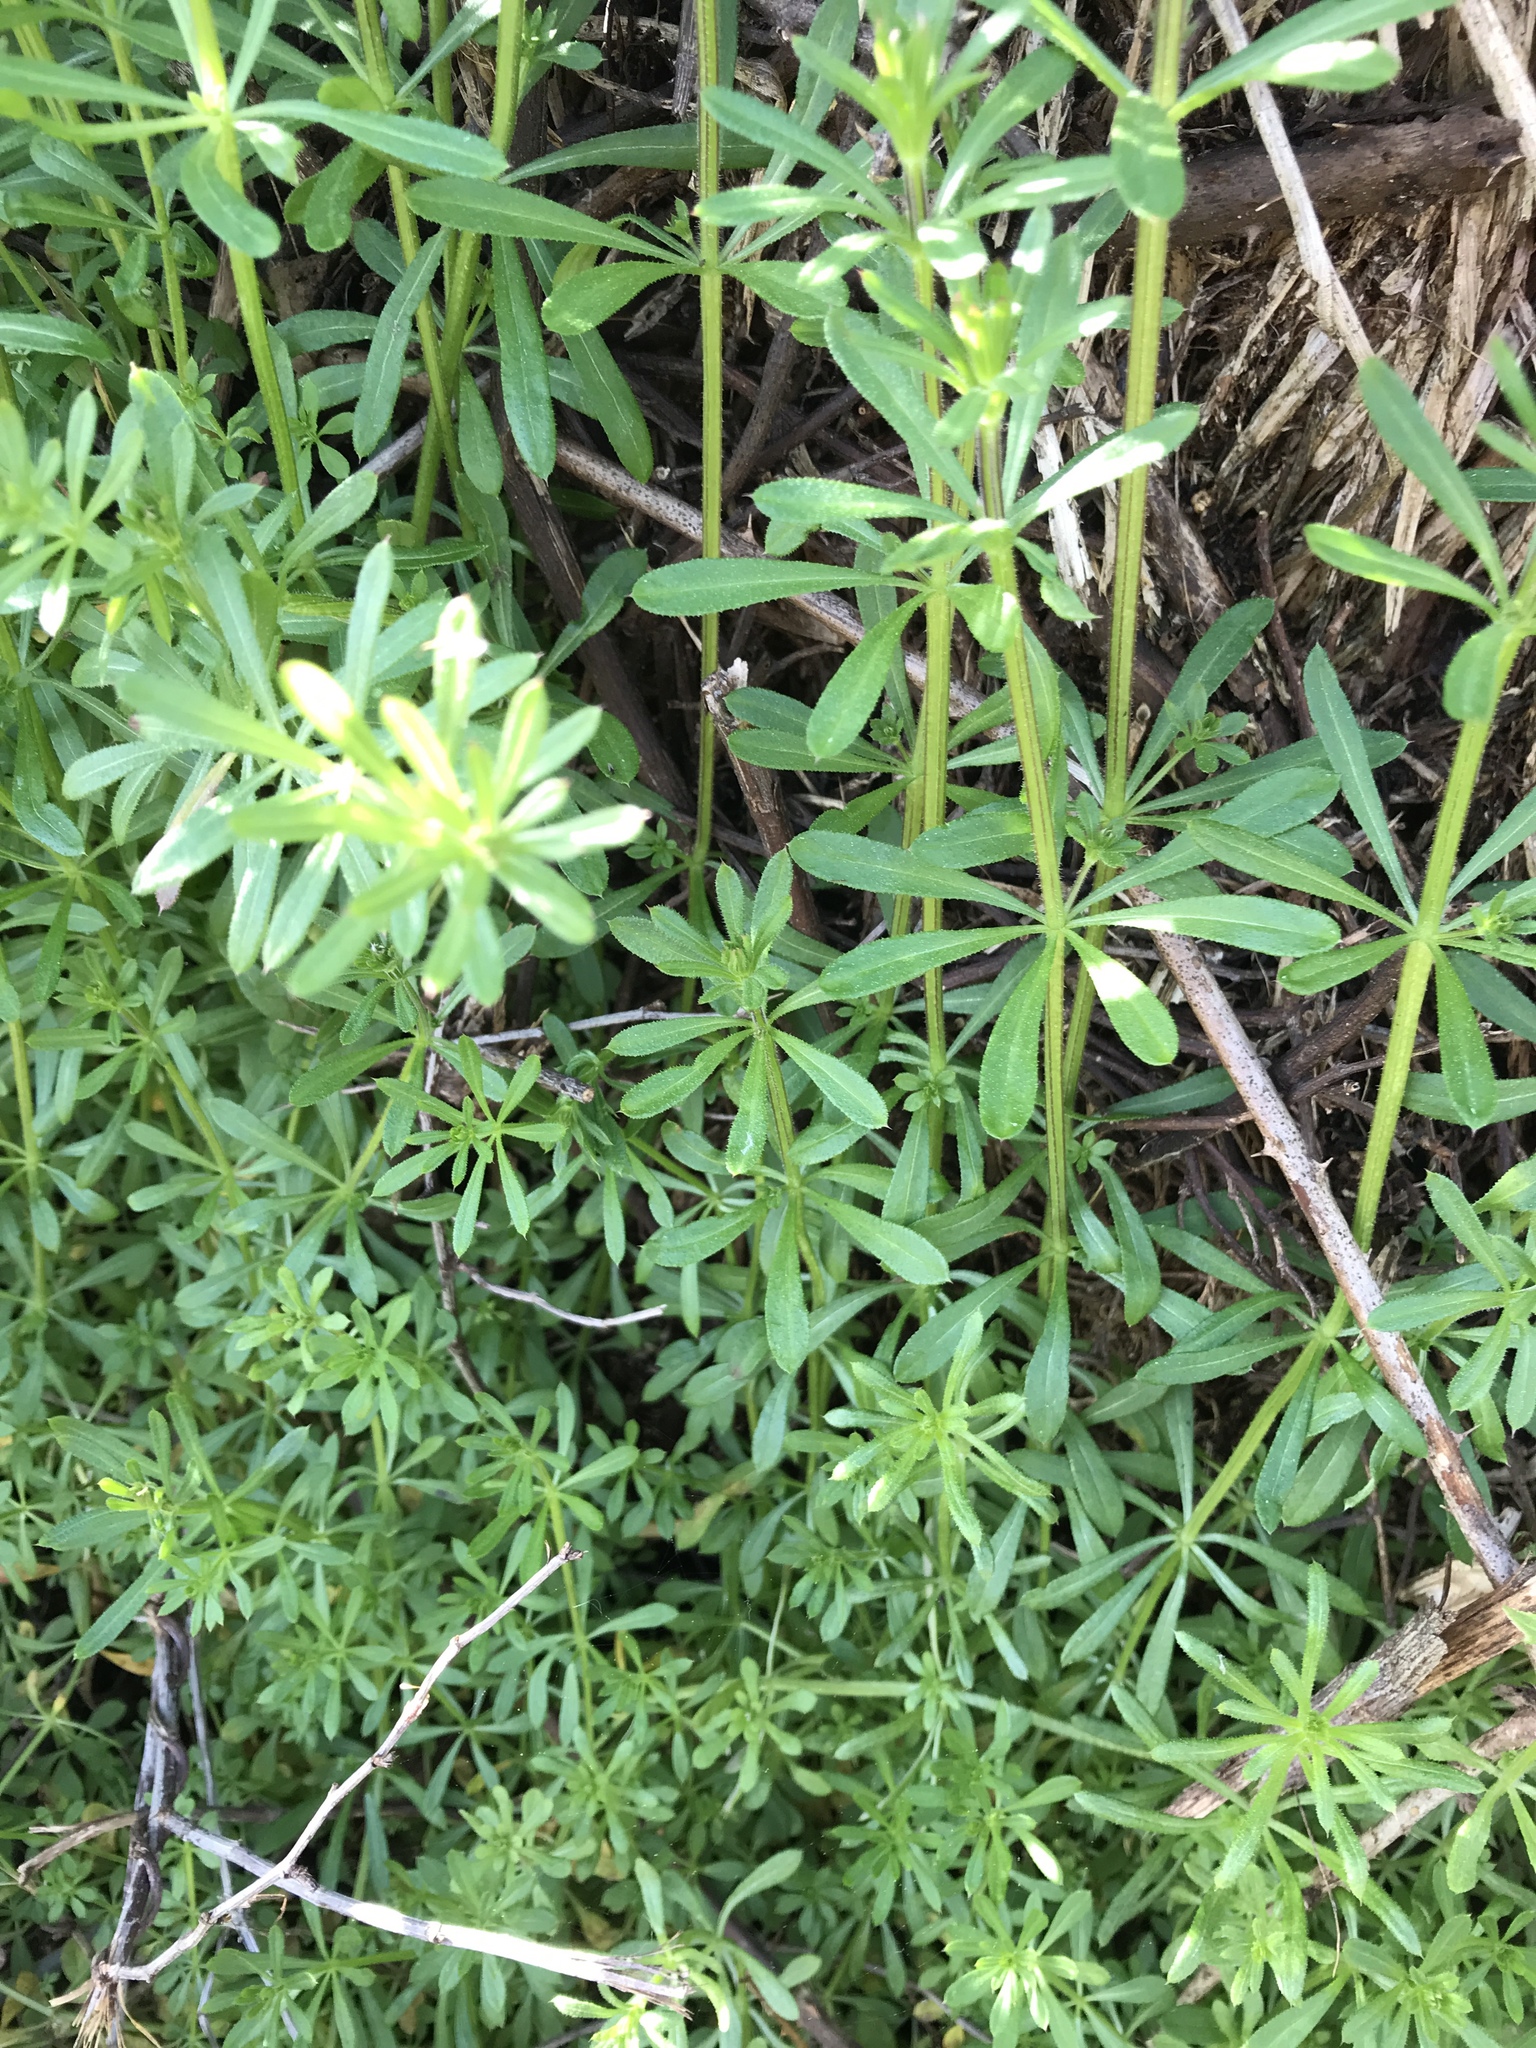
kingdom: Plantae
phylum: Tracheophyta
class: Magnoliopsida
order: Gentianales
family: Rubiaceae
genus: Galium
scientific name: Galium aparine
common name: Cleavers
